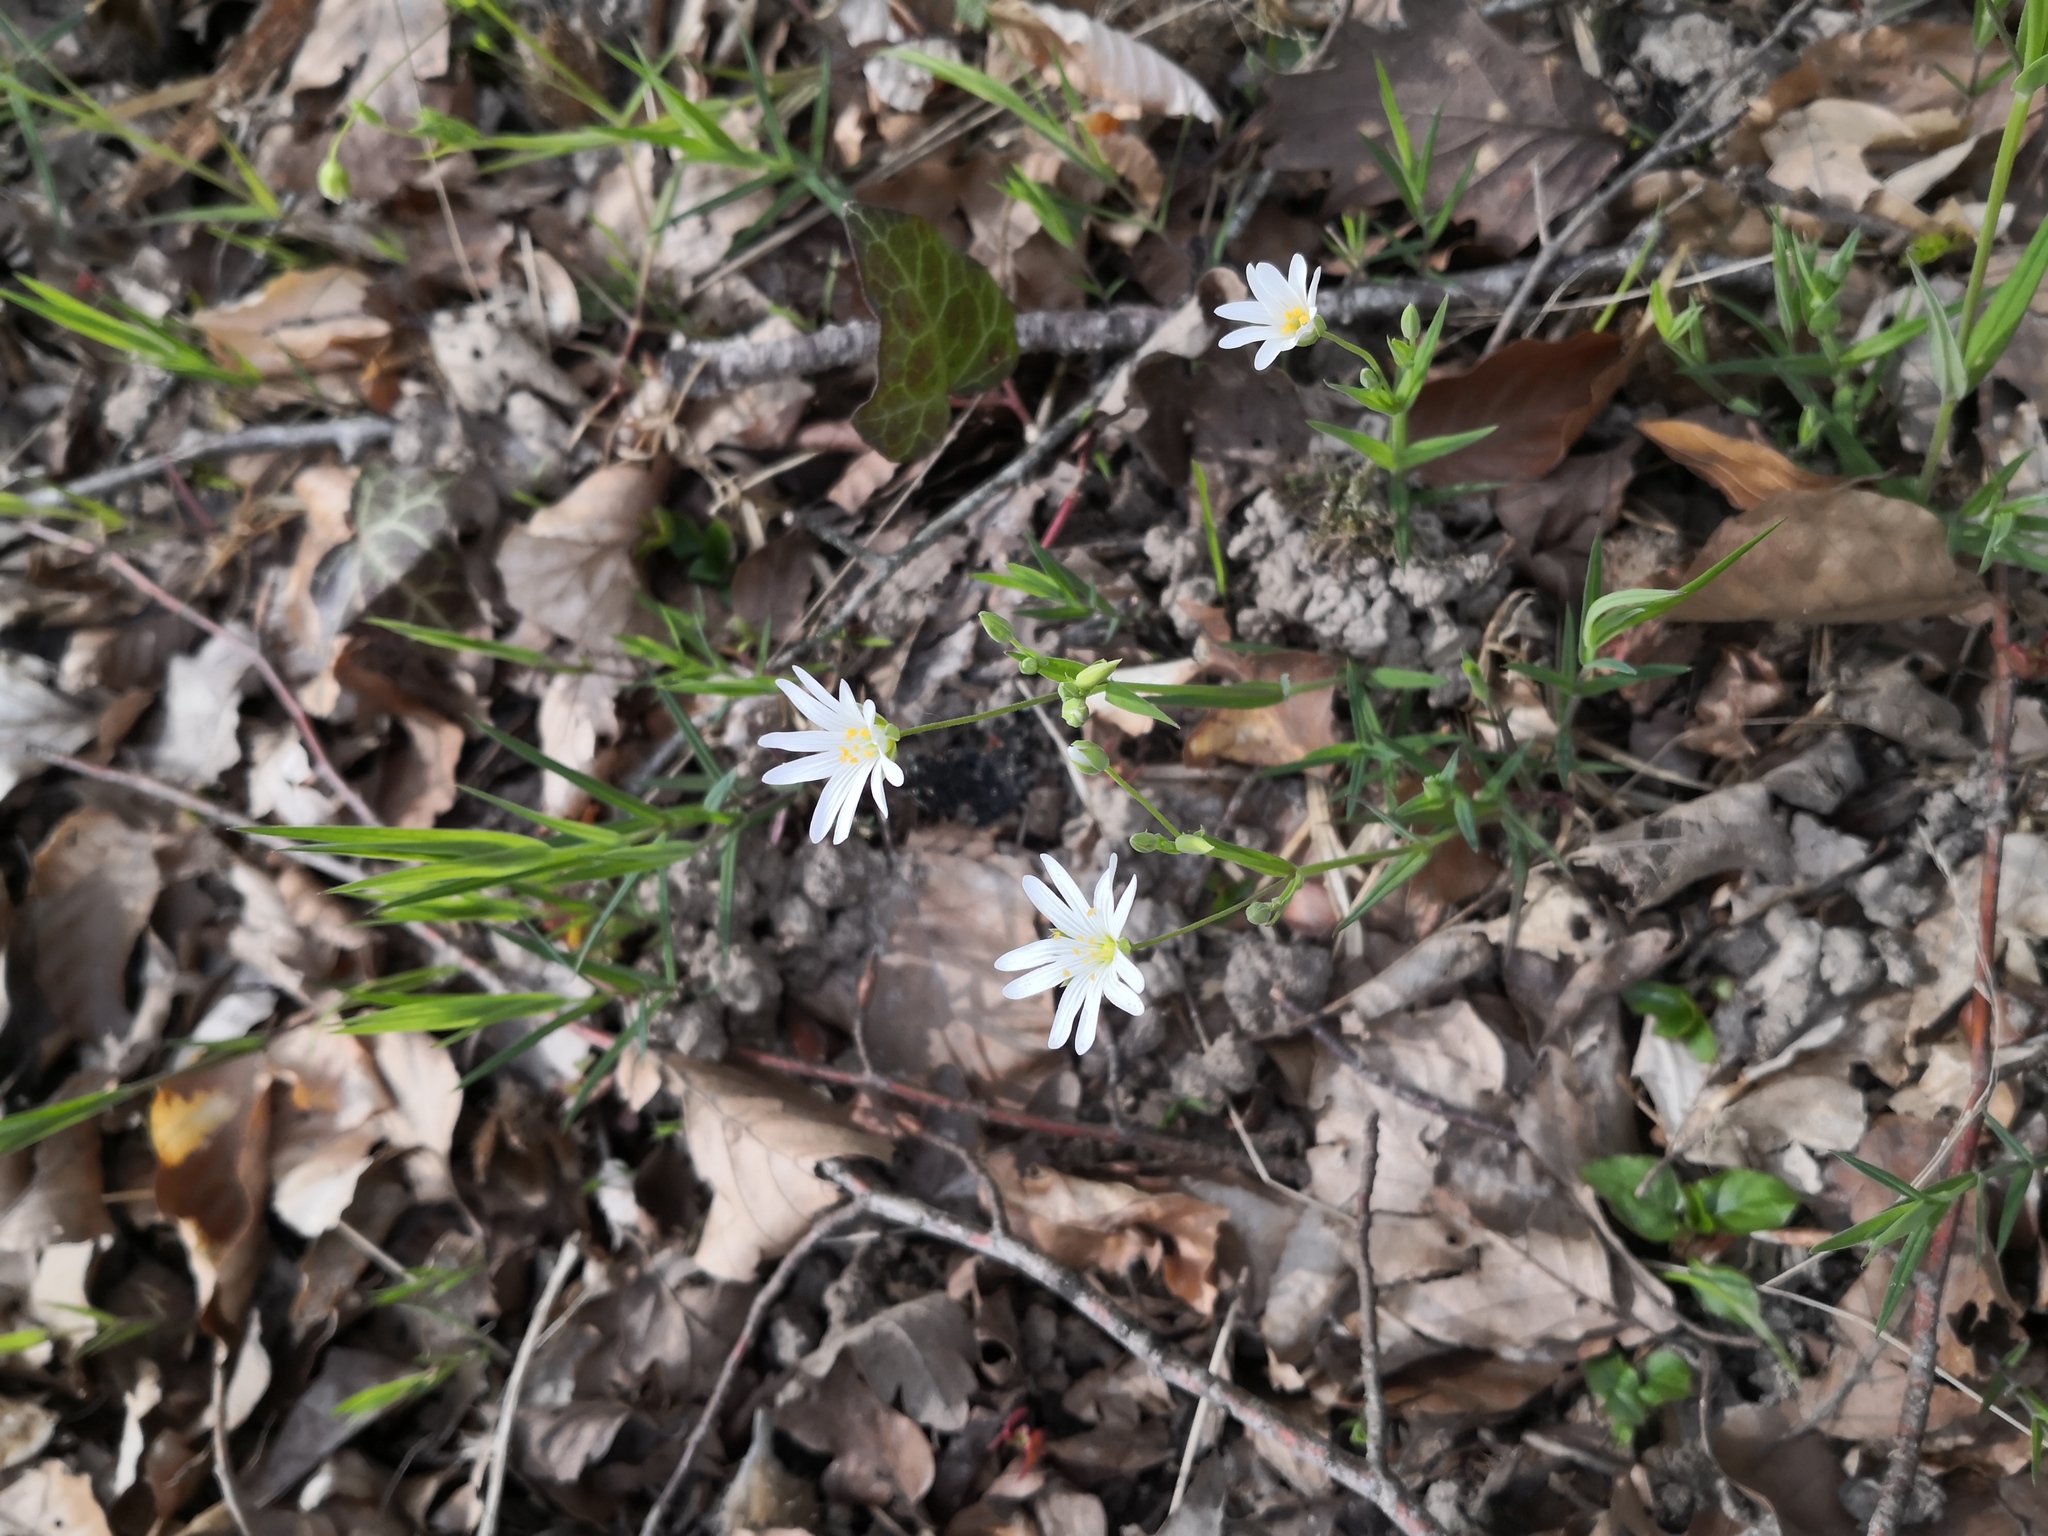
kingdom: Plantae
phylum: Tracheophyta
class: Magnoliopsida
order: Caryophyllales
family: Caryophyllaceae
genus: Rabelera
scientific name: Rabelera holostea
